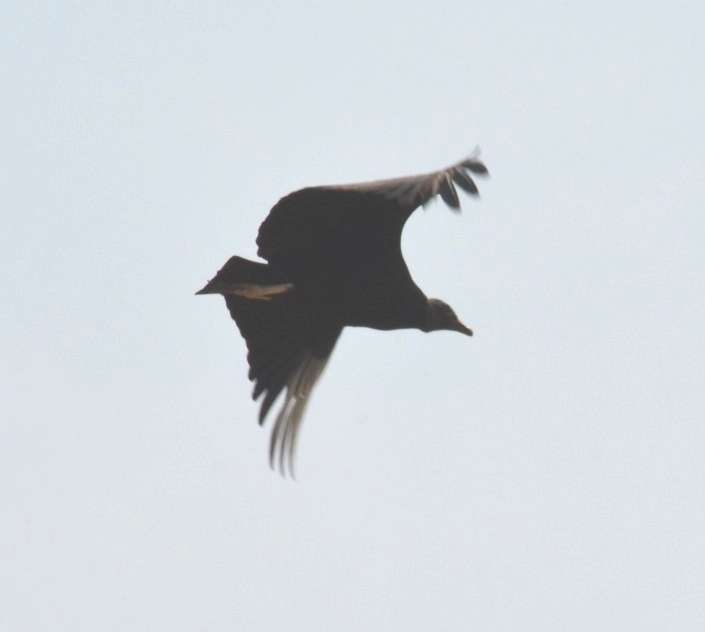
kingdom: Animalia
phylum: Chordata
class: Aves
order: Accipitriformes
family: Cathartidae
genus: Coragyps
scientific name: Coragyps atratus
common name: Black vulture
